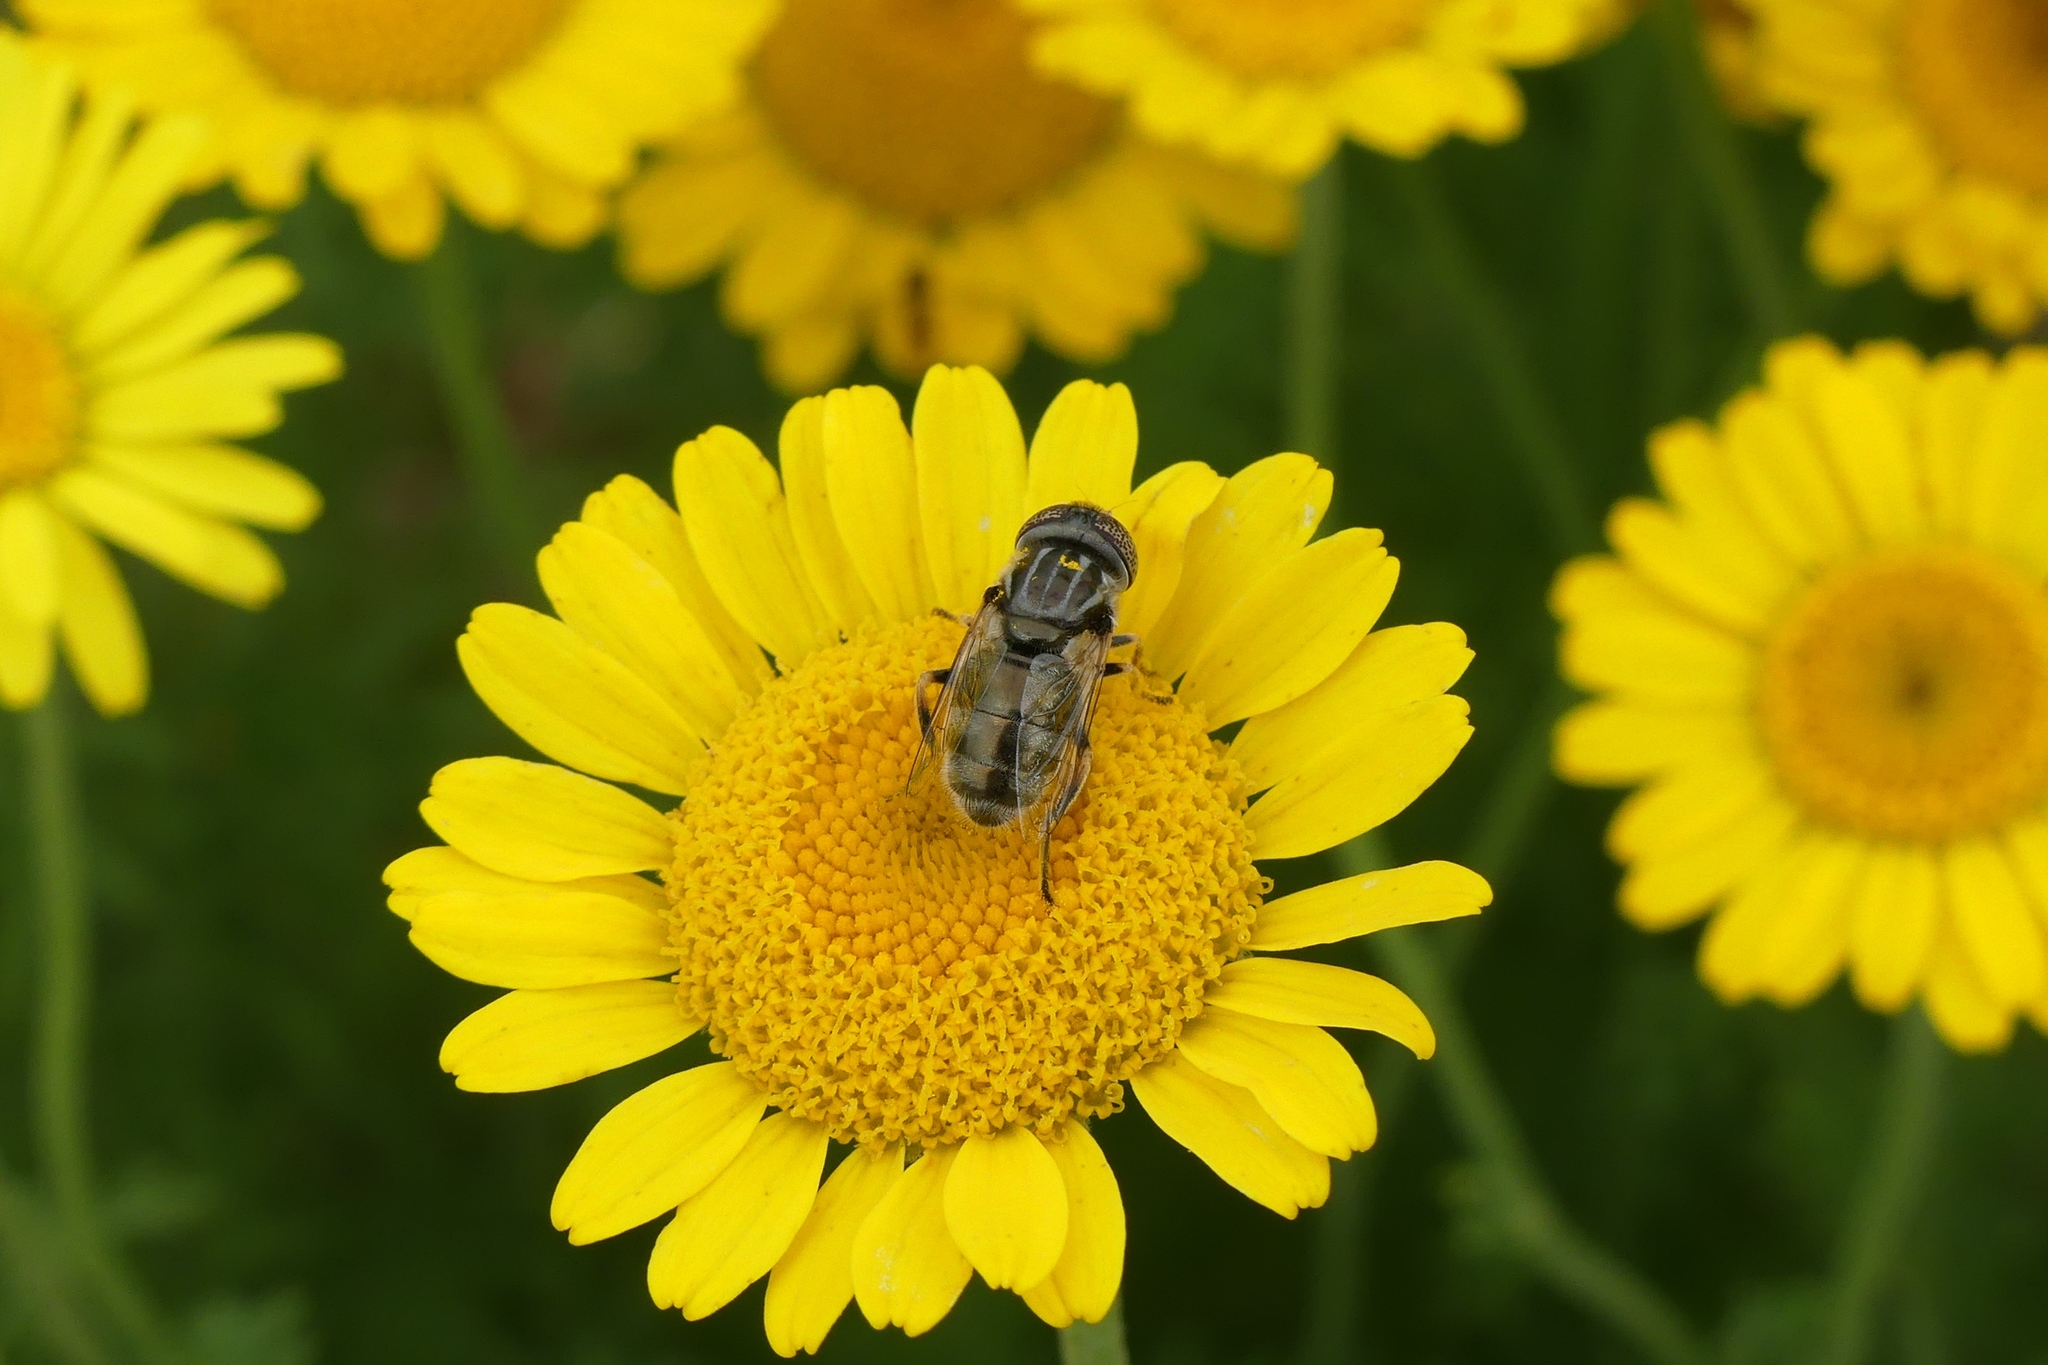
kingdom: Animalia
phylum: Arthropoda
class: Insecta
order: Diptera
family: Syrphidae
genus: Eristalinus
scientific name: Eristalinus aeneus
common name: Syrphid fly
